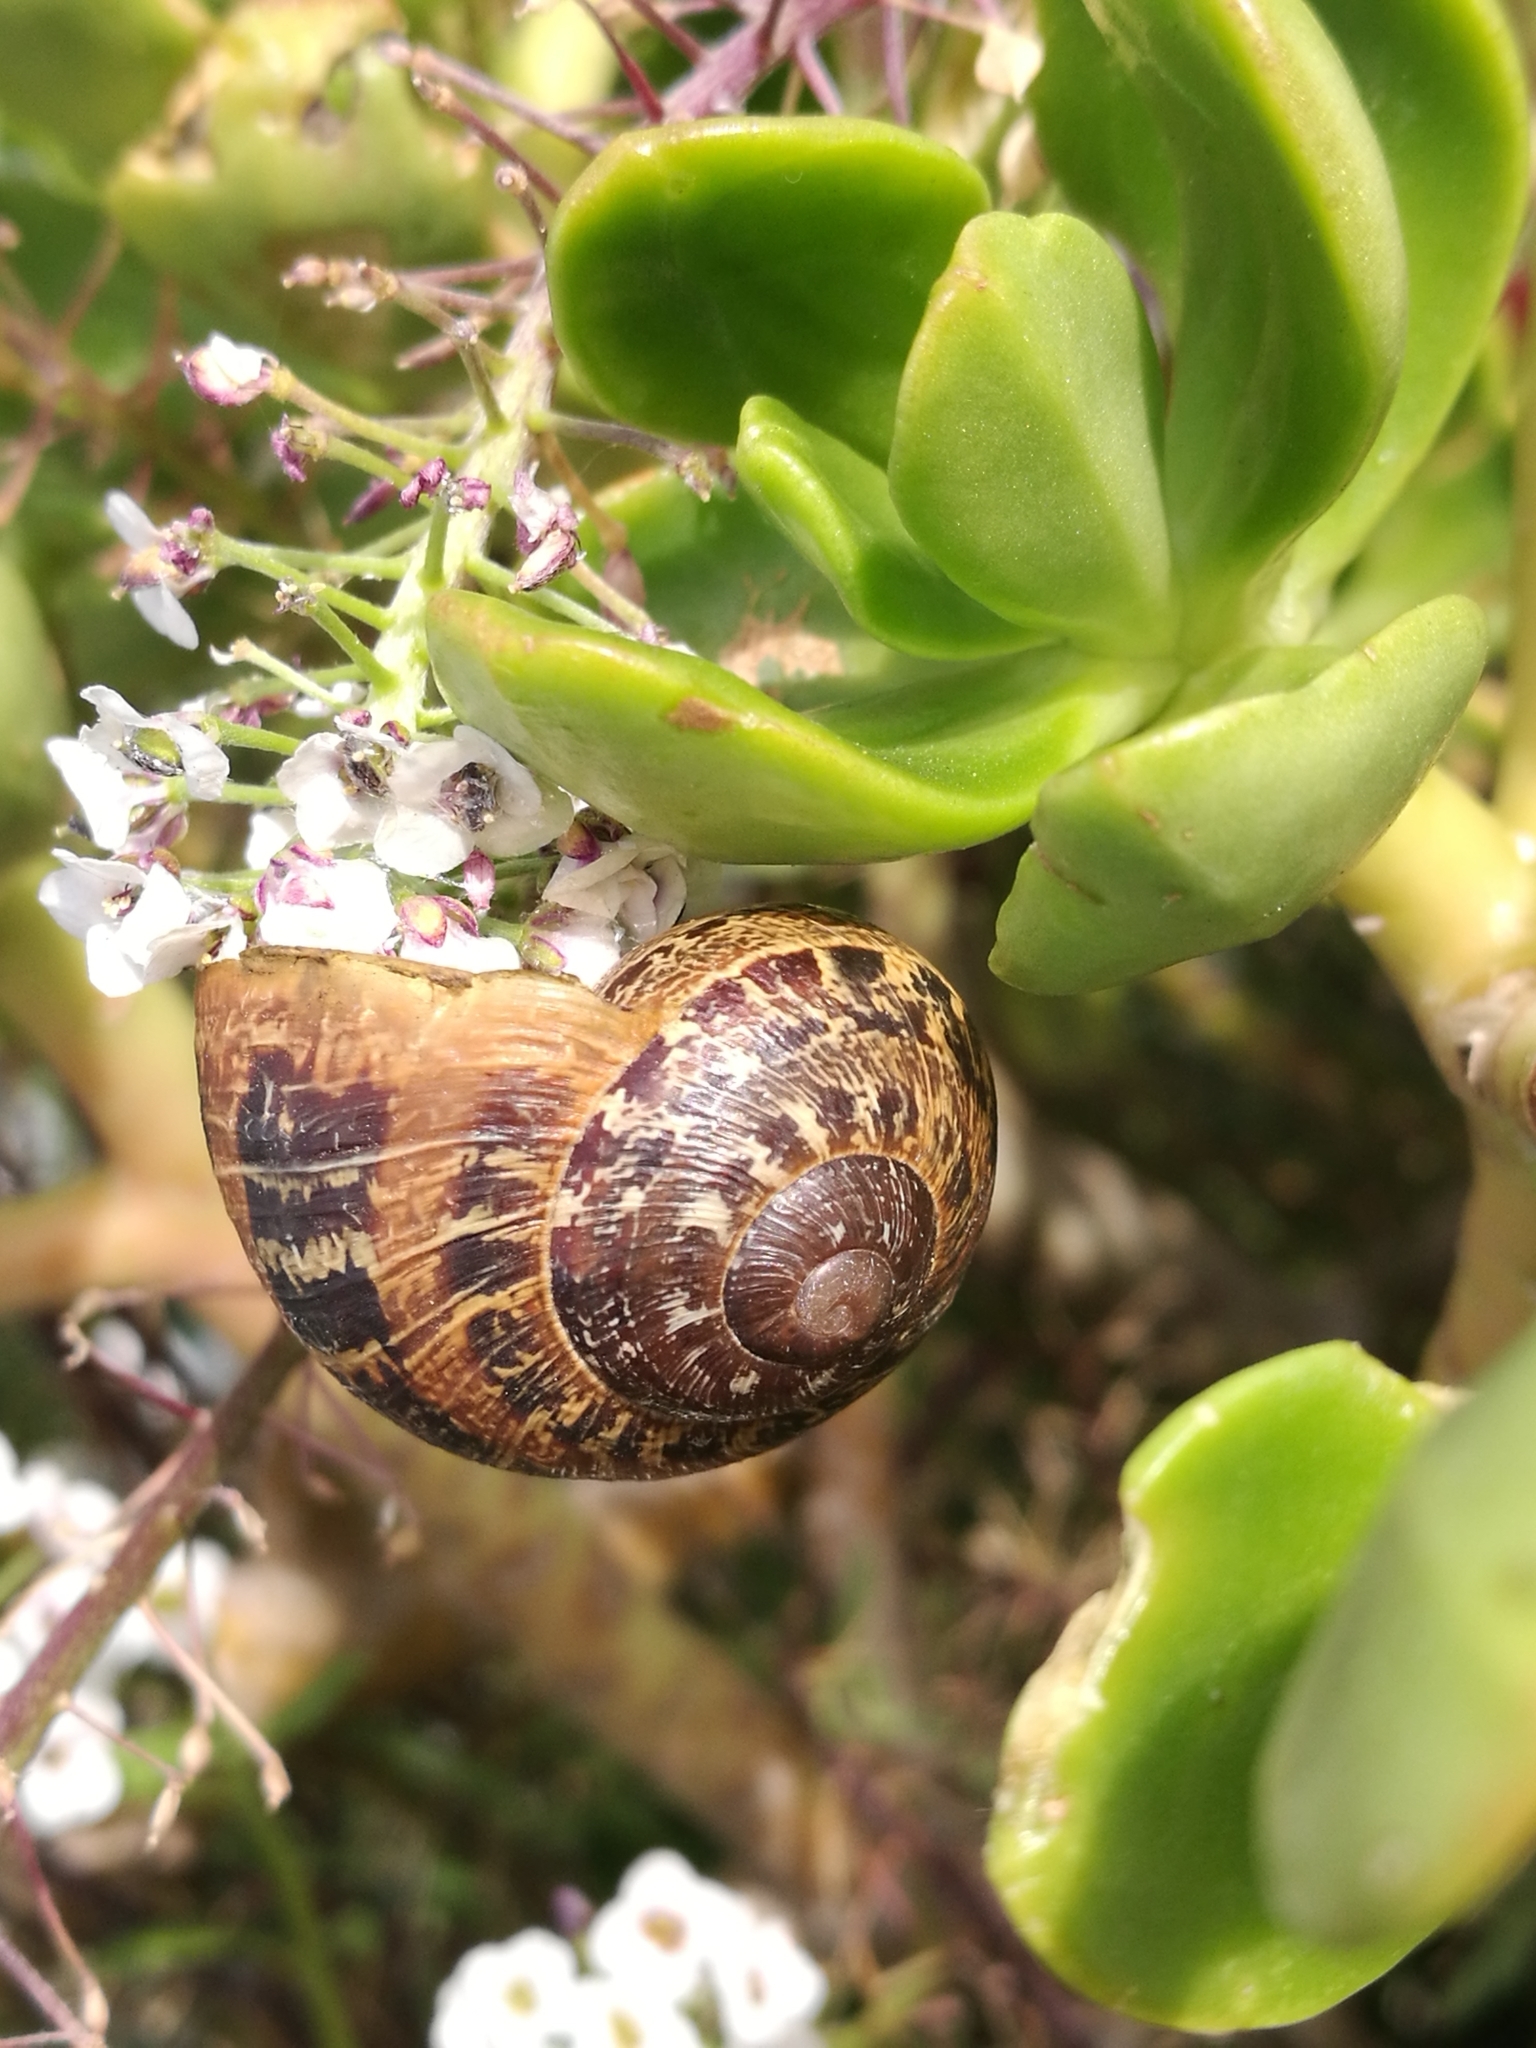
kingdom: Animalia
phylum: Mollusca
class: Gastropoda
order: Stylommatophora
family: Helicidae
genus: Cornu
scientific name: Cornu aspersum
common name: Brown garden snail
